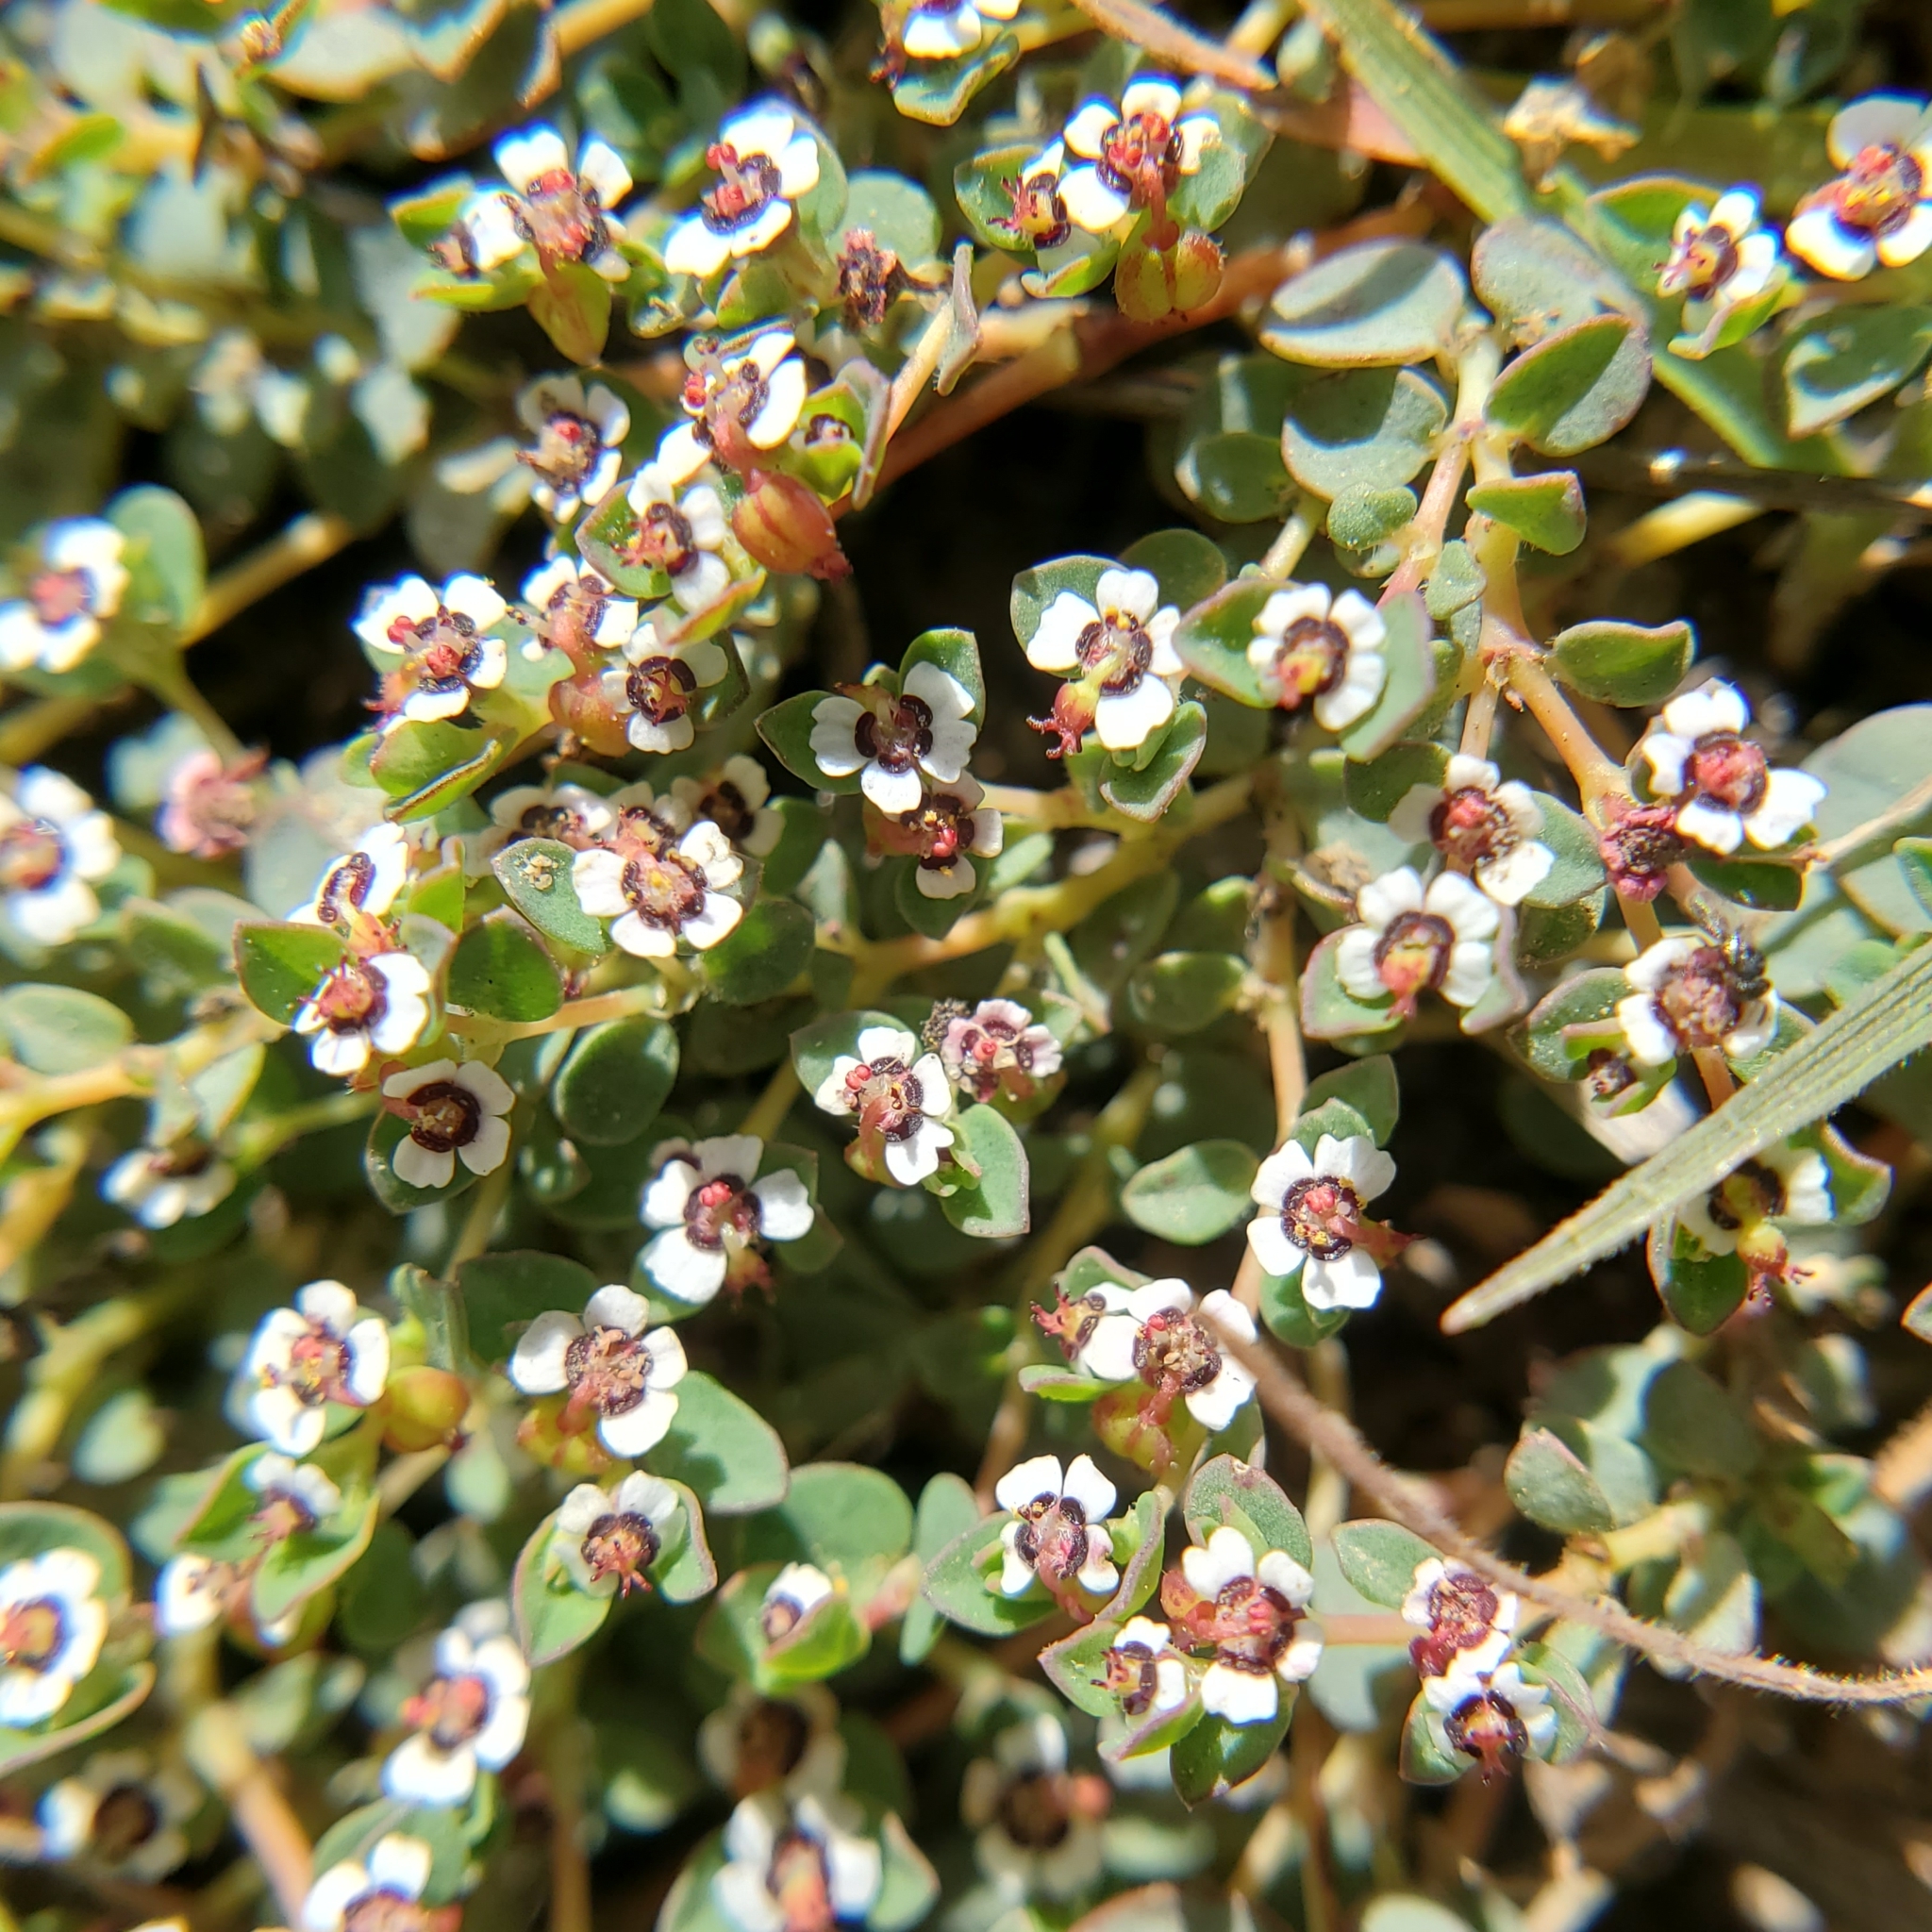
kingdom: Plantae
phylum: Tracheophyta
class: Magnoliopsida
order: Malpighiales
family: Euphorbiaceae
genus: Euphorbia
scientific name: Euphorbia polycarpa
